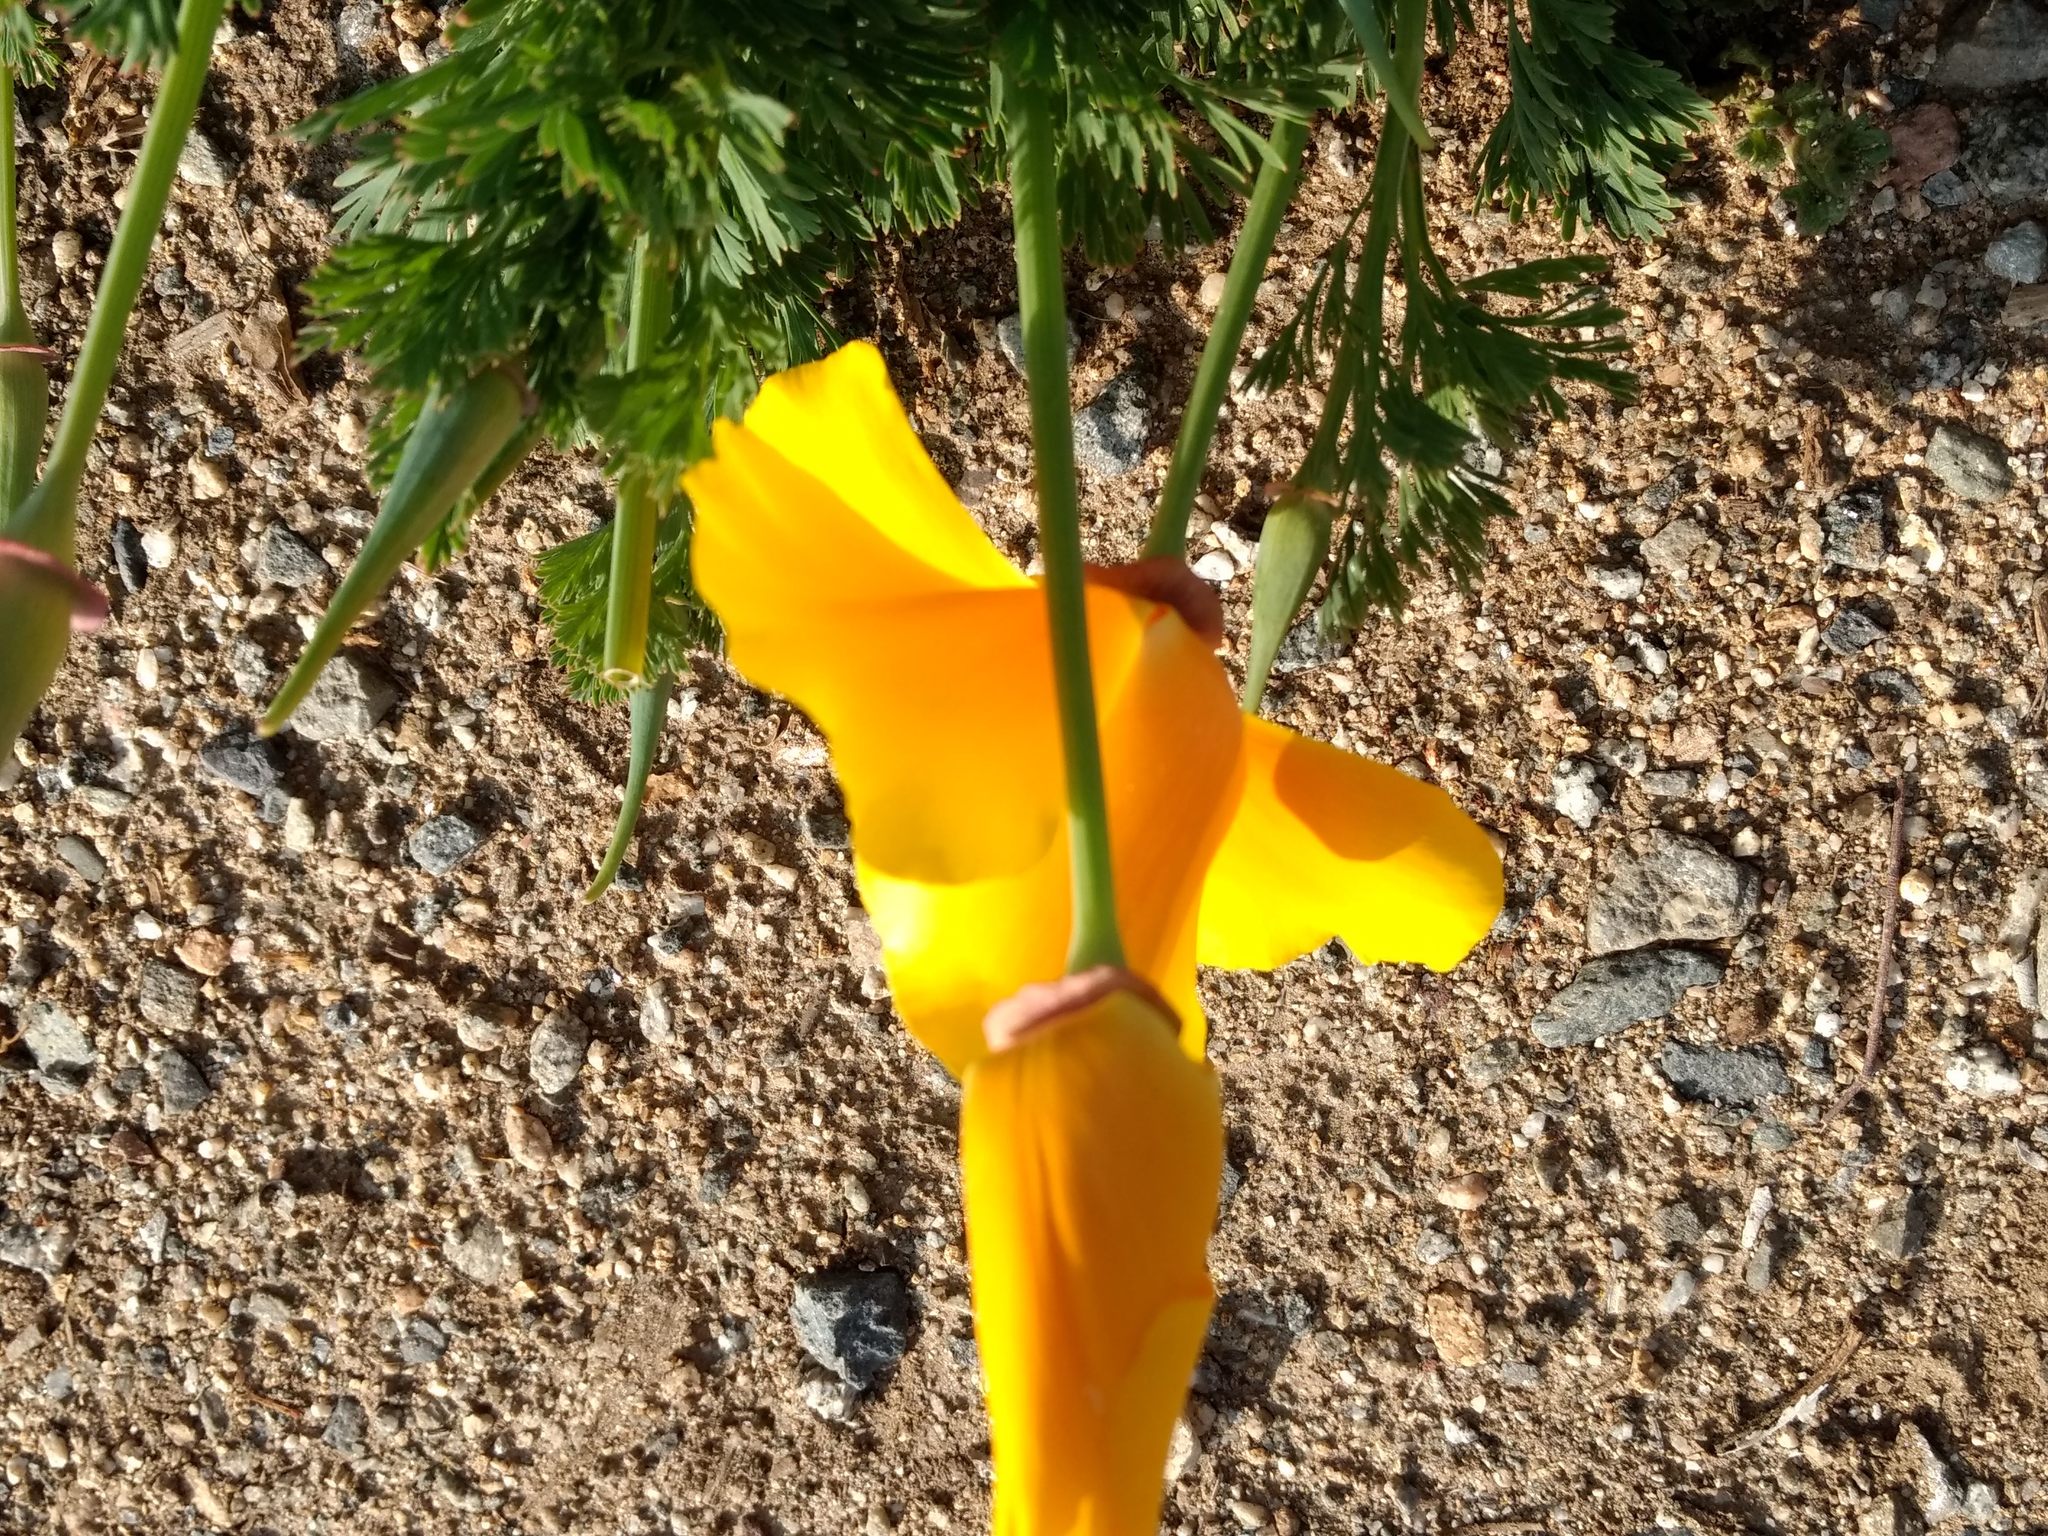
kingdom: Plantae
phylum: Tracheophyta
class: Magnoliopsida
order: Ranunculales
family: Papaveraceae
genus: Eschscholzia
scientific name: Eschscholzia californica
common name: California poppy
